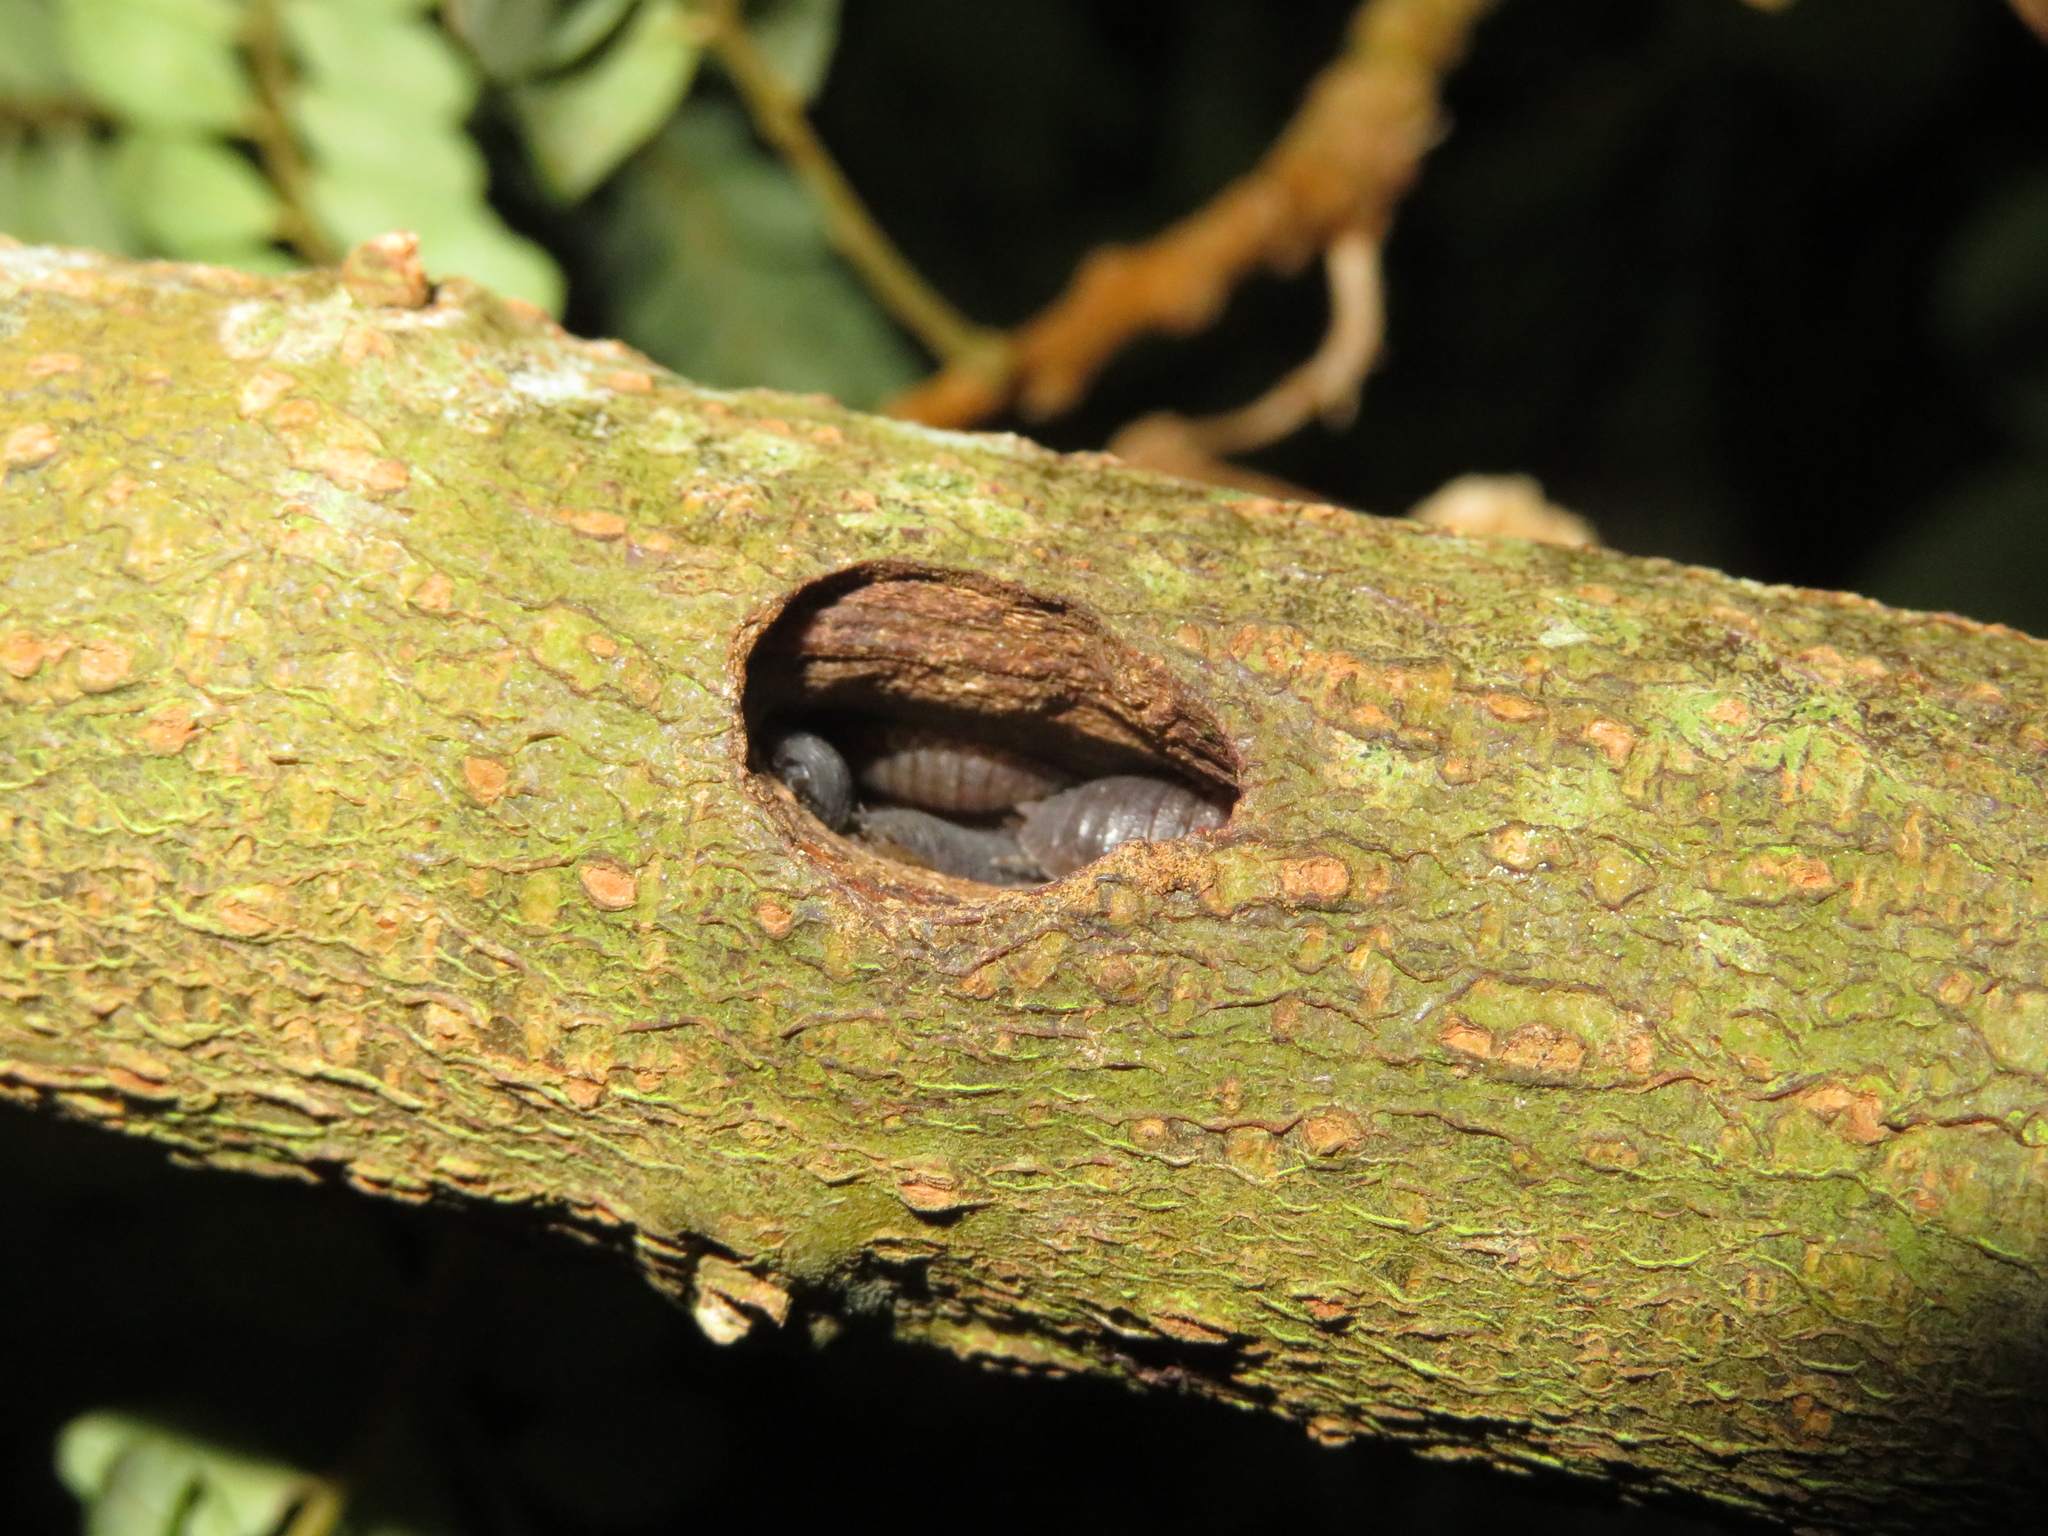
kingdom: Animalia
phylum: Arthropoda
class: Malacostraca
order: Isopoda
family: Porcellionidae
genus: Porcellio
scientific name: Porcellio scaber
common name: Common rough woodlouse
